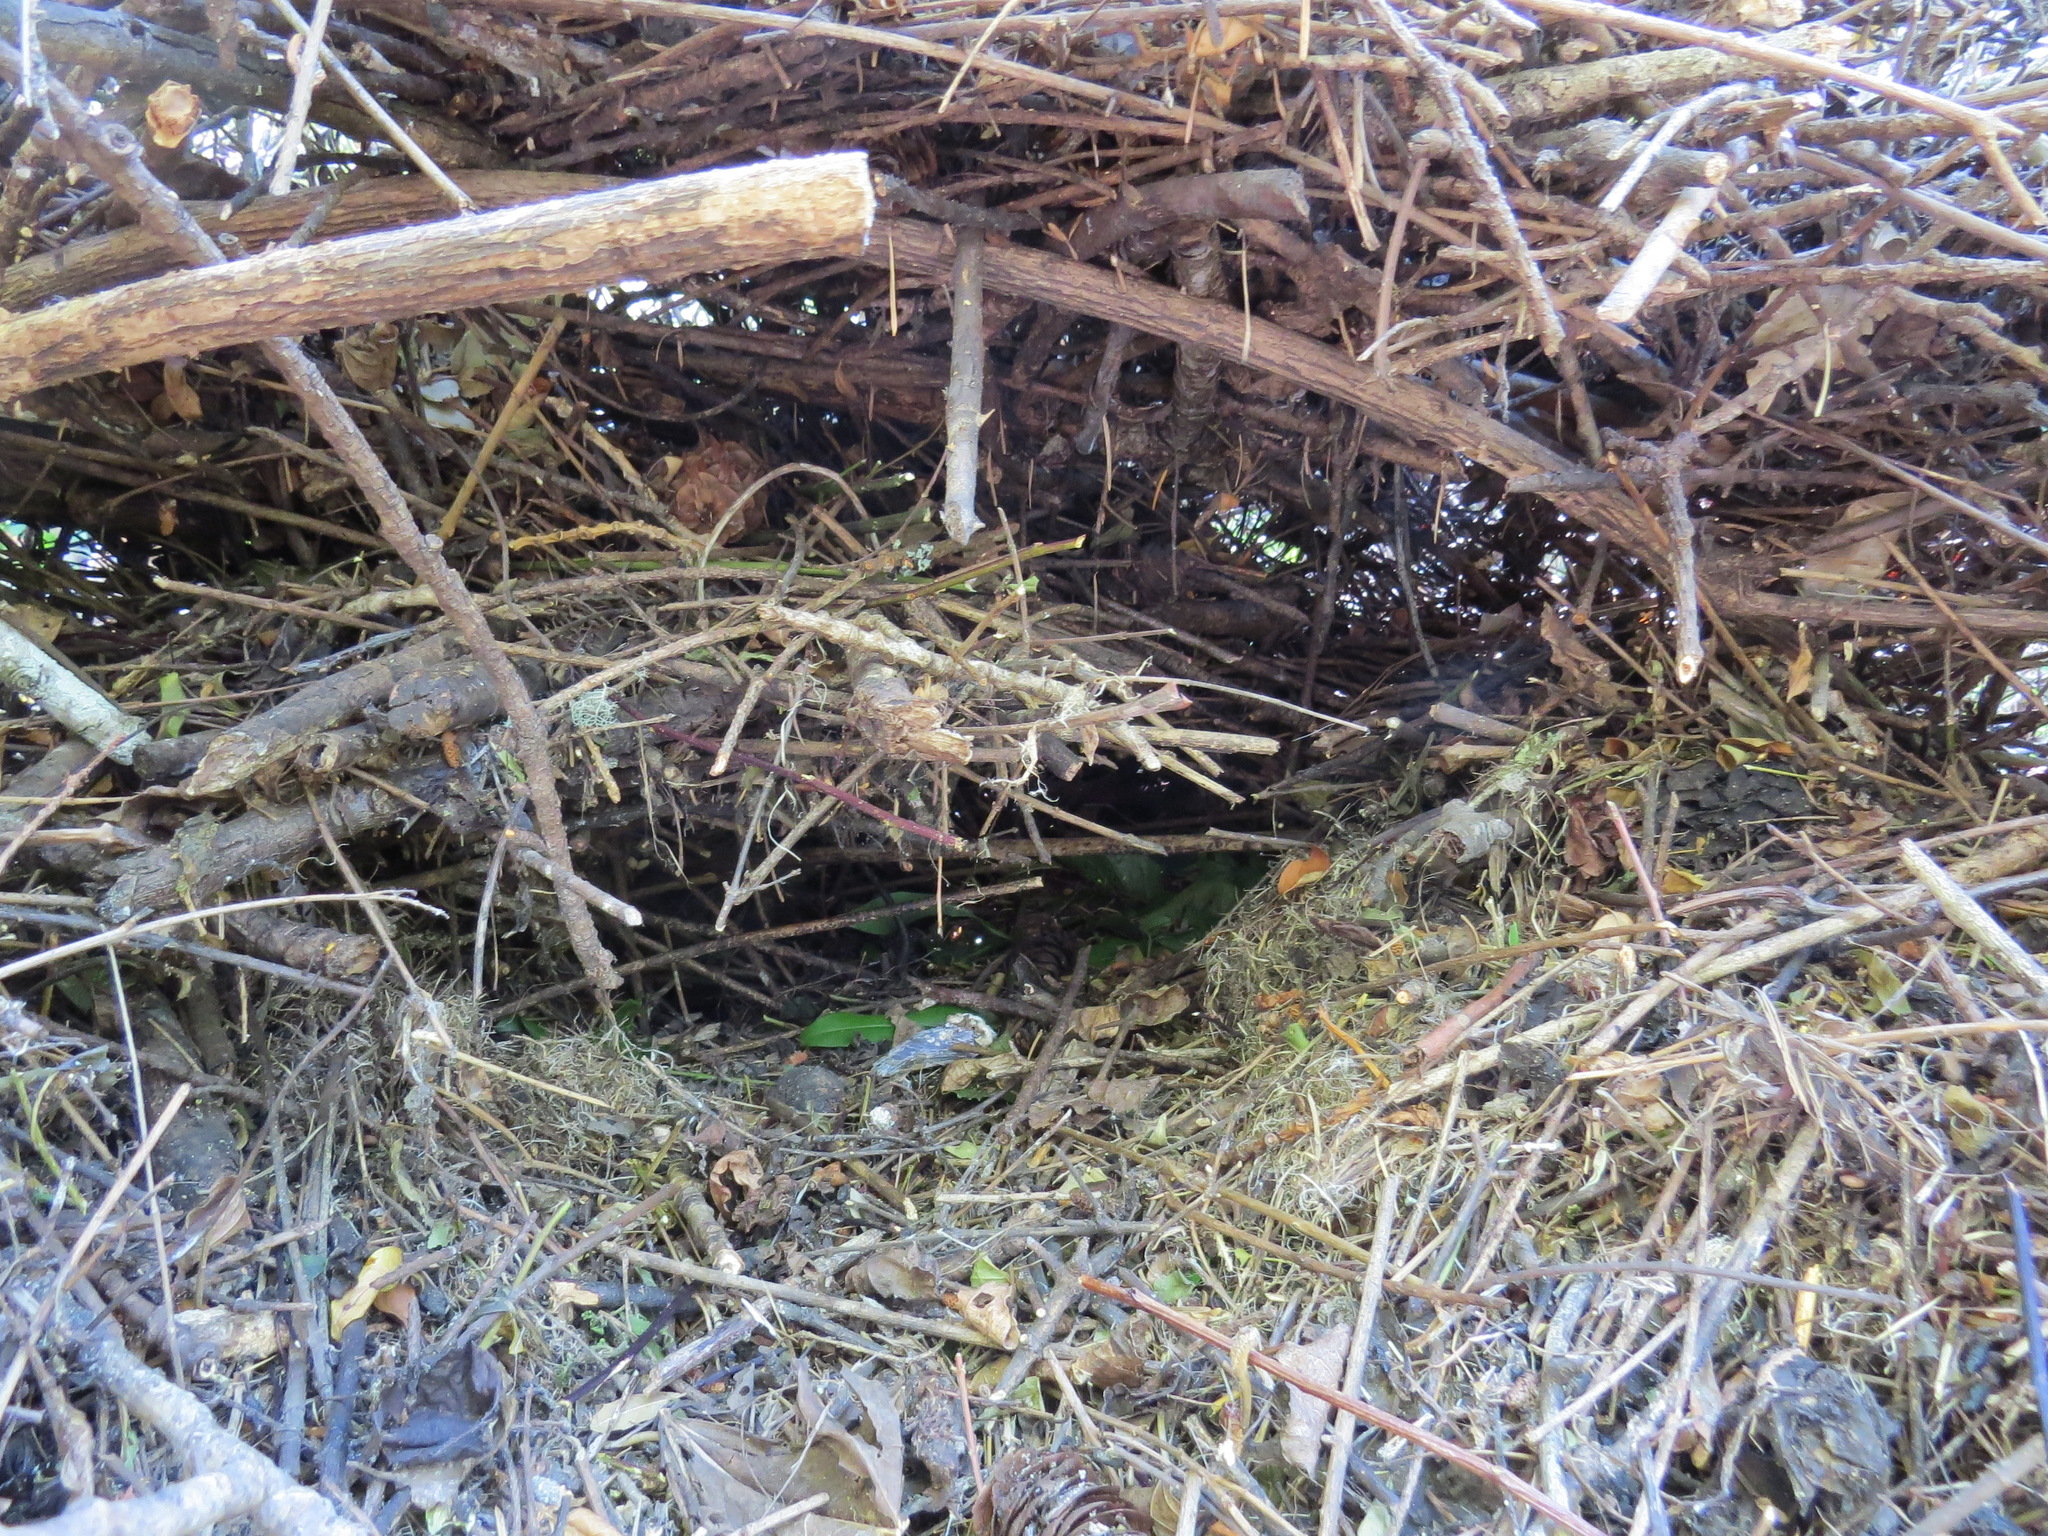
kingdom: Animalia
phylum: Chordata
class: Mammalia
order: Rodentia
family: Cricetidae
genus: Neotoma
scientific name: Neotoma fuscipes
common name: Dusky-footed woodrat
